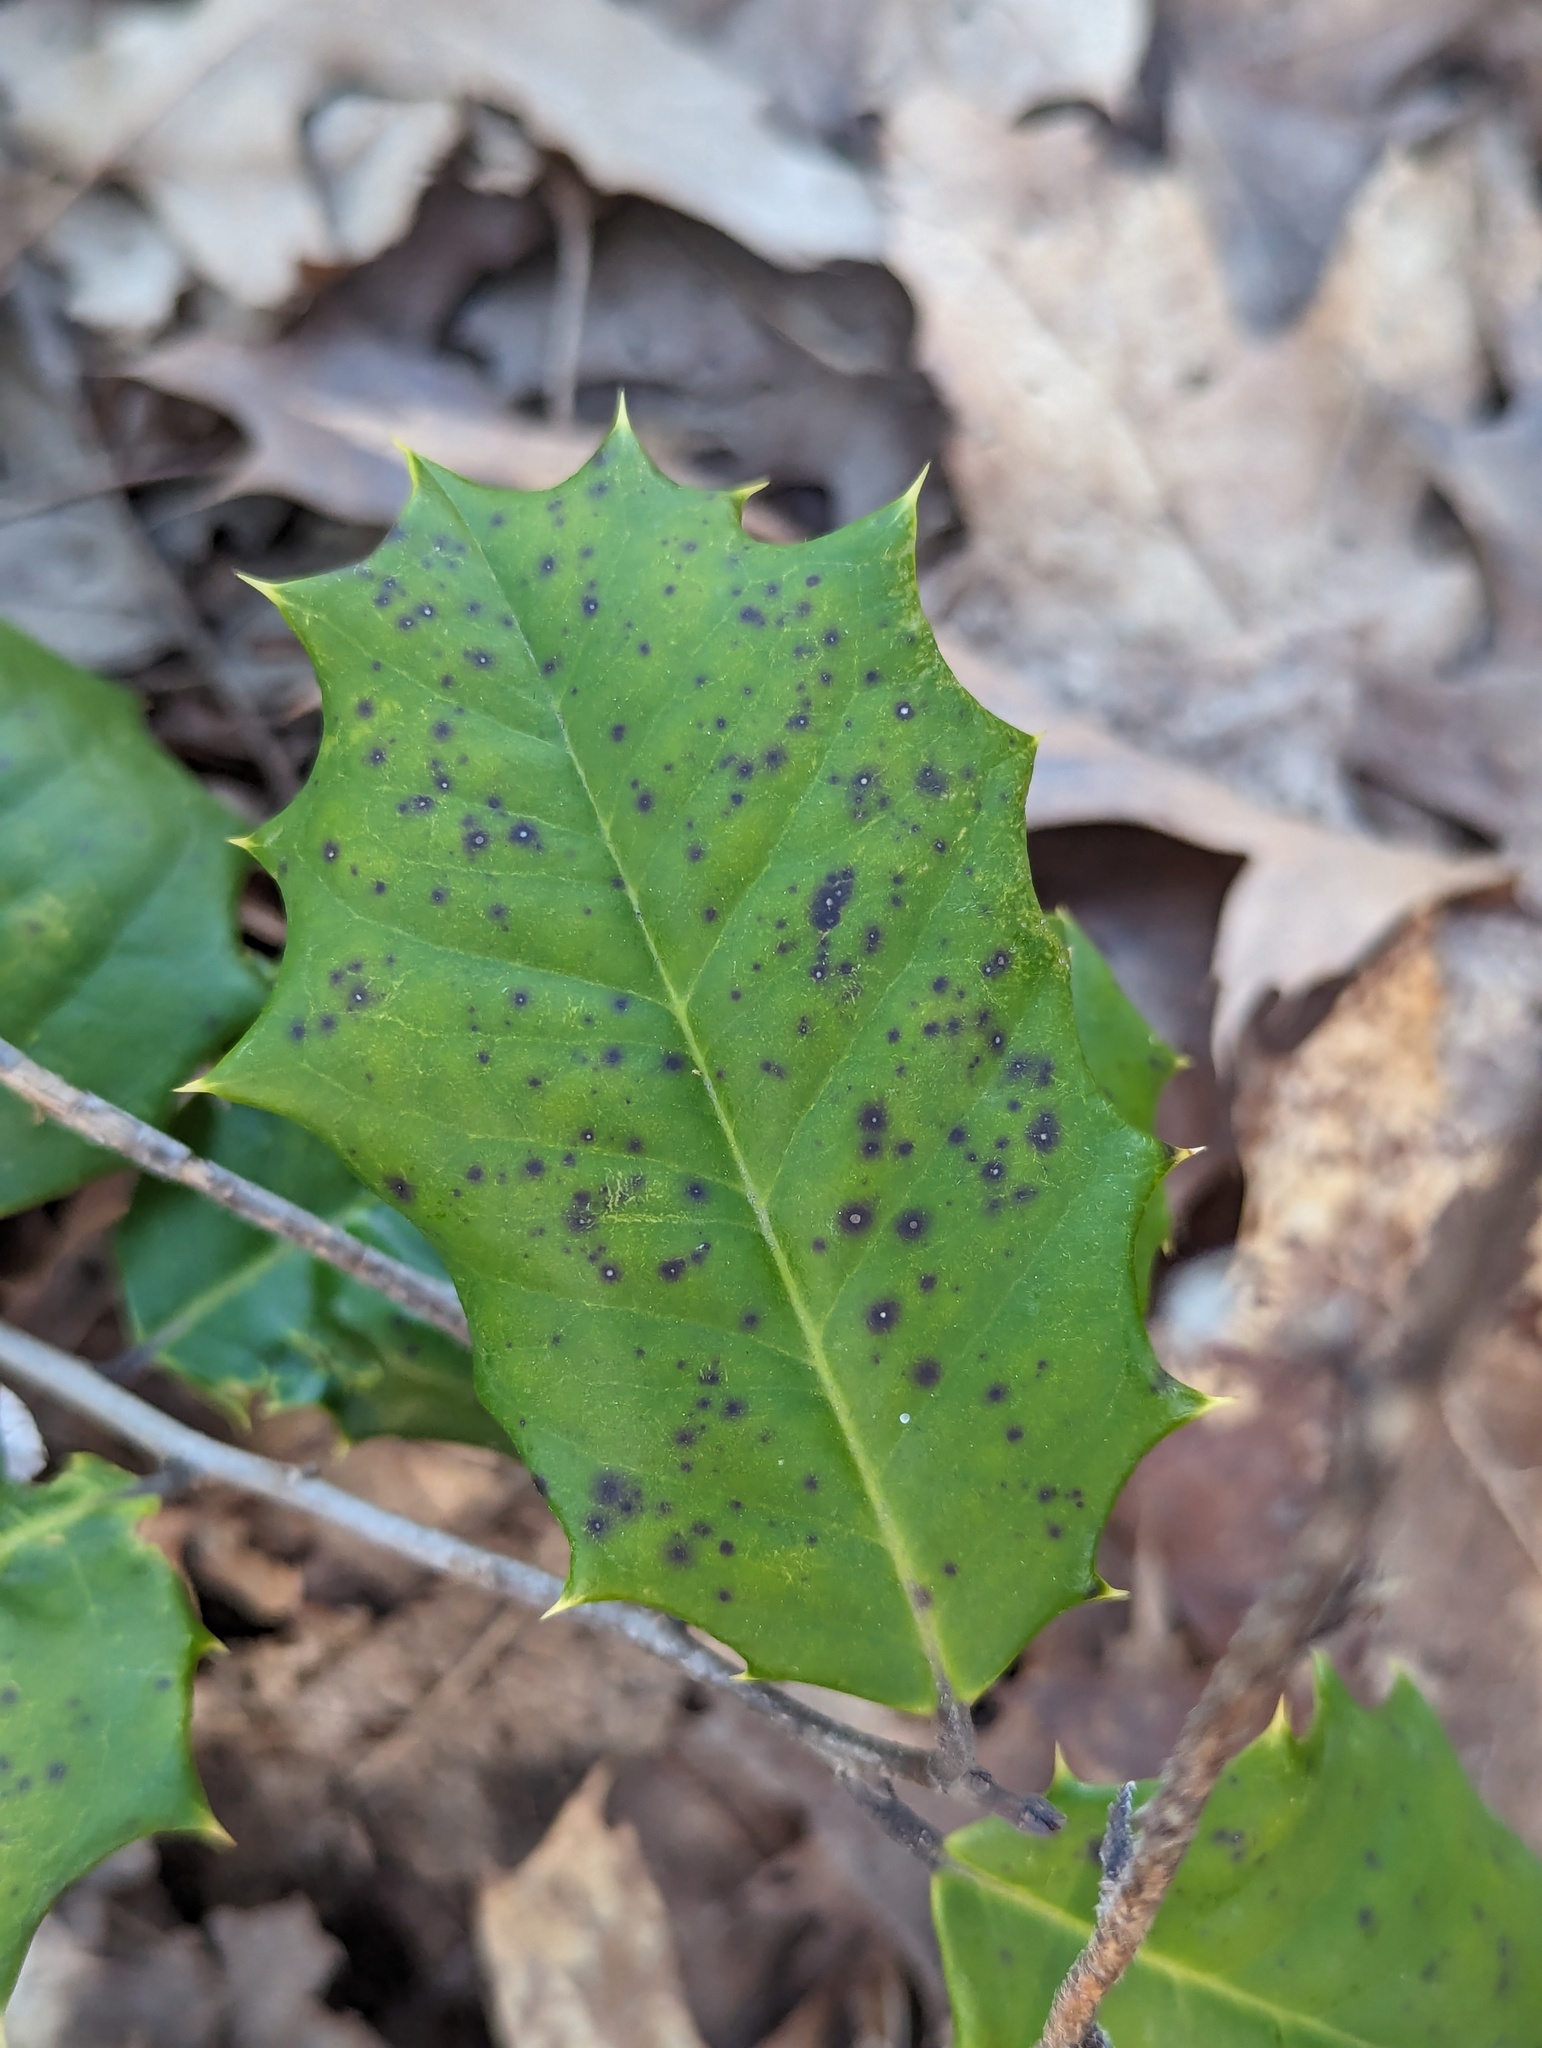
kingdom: Plantae
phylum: Tracheophyta
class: Magnoliopsida
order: Aquifoliales
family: Aquifoliaceae
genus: Ilex
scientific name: Ilex opaca
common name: American holly
